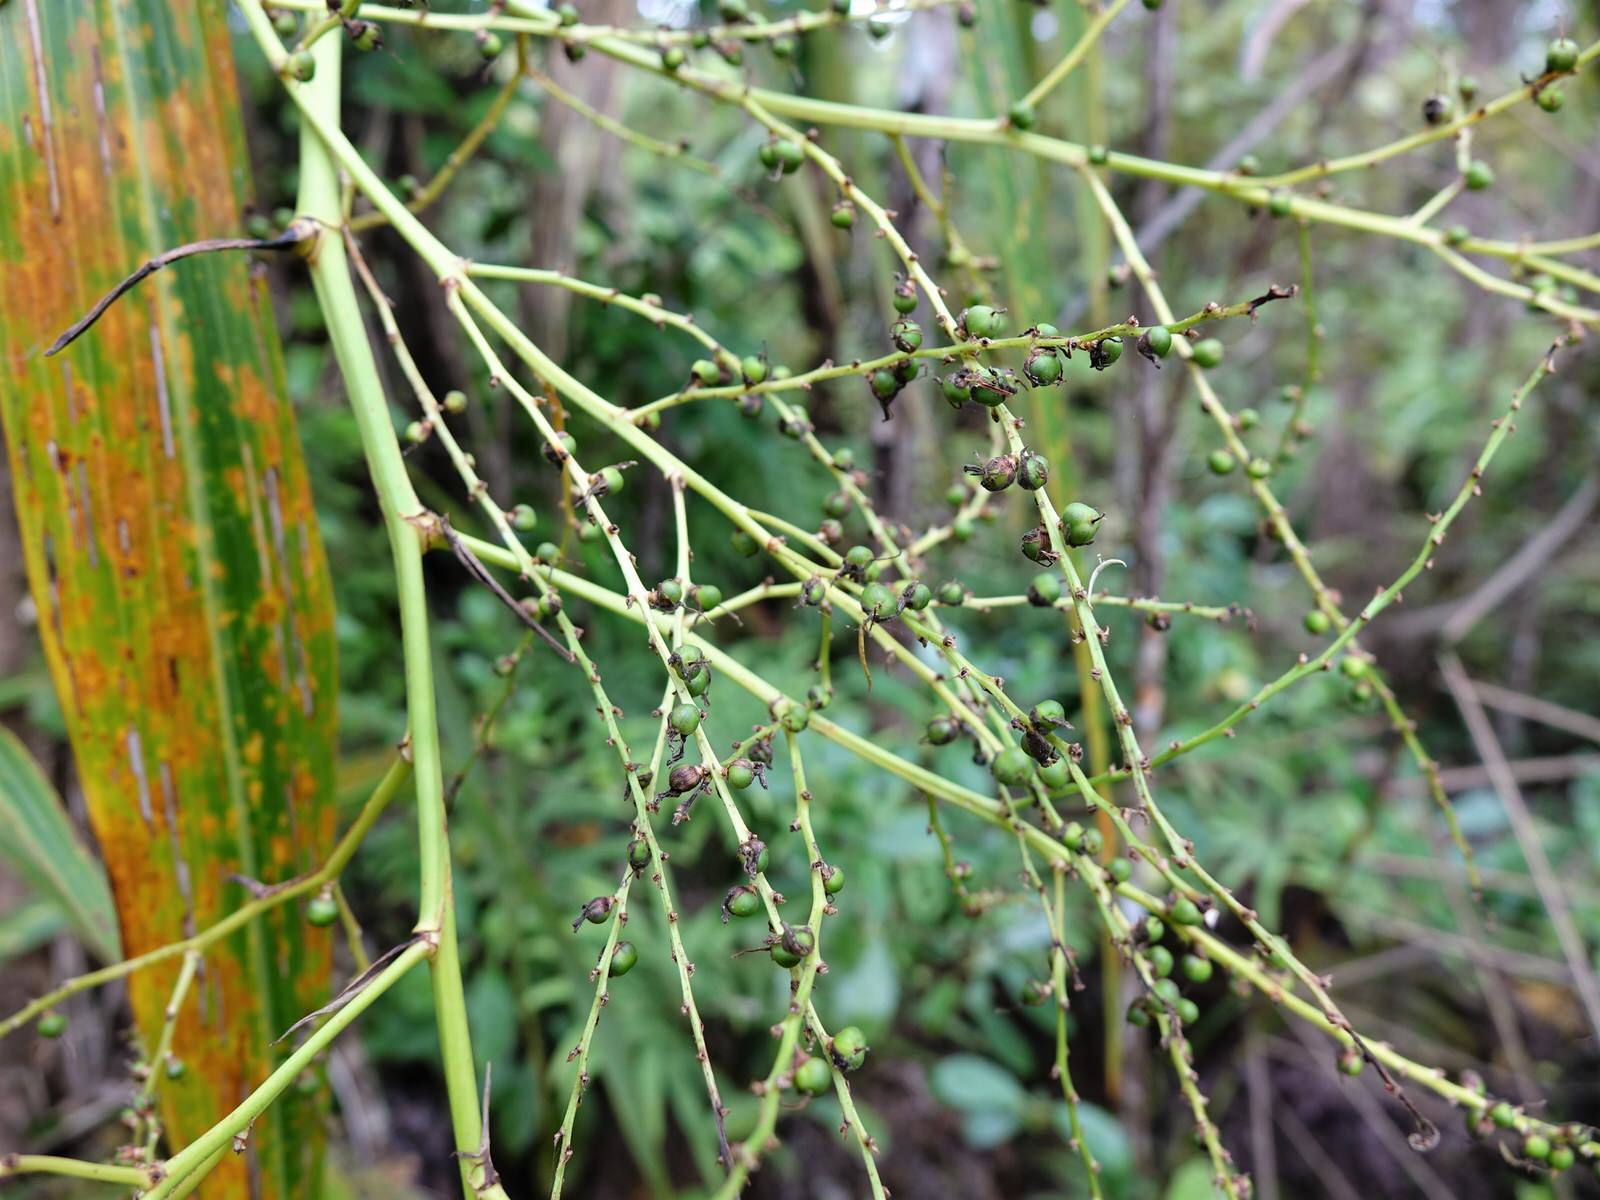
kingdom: Plantae
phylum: Tracheophyta
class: Liliopsida
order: Asparagales
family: Asparagaceae
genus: Cordyline
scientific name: Cordyline banksii
